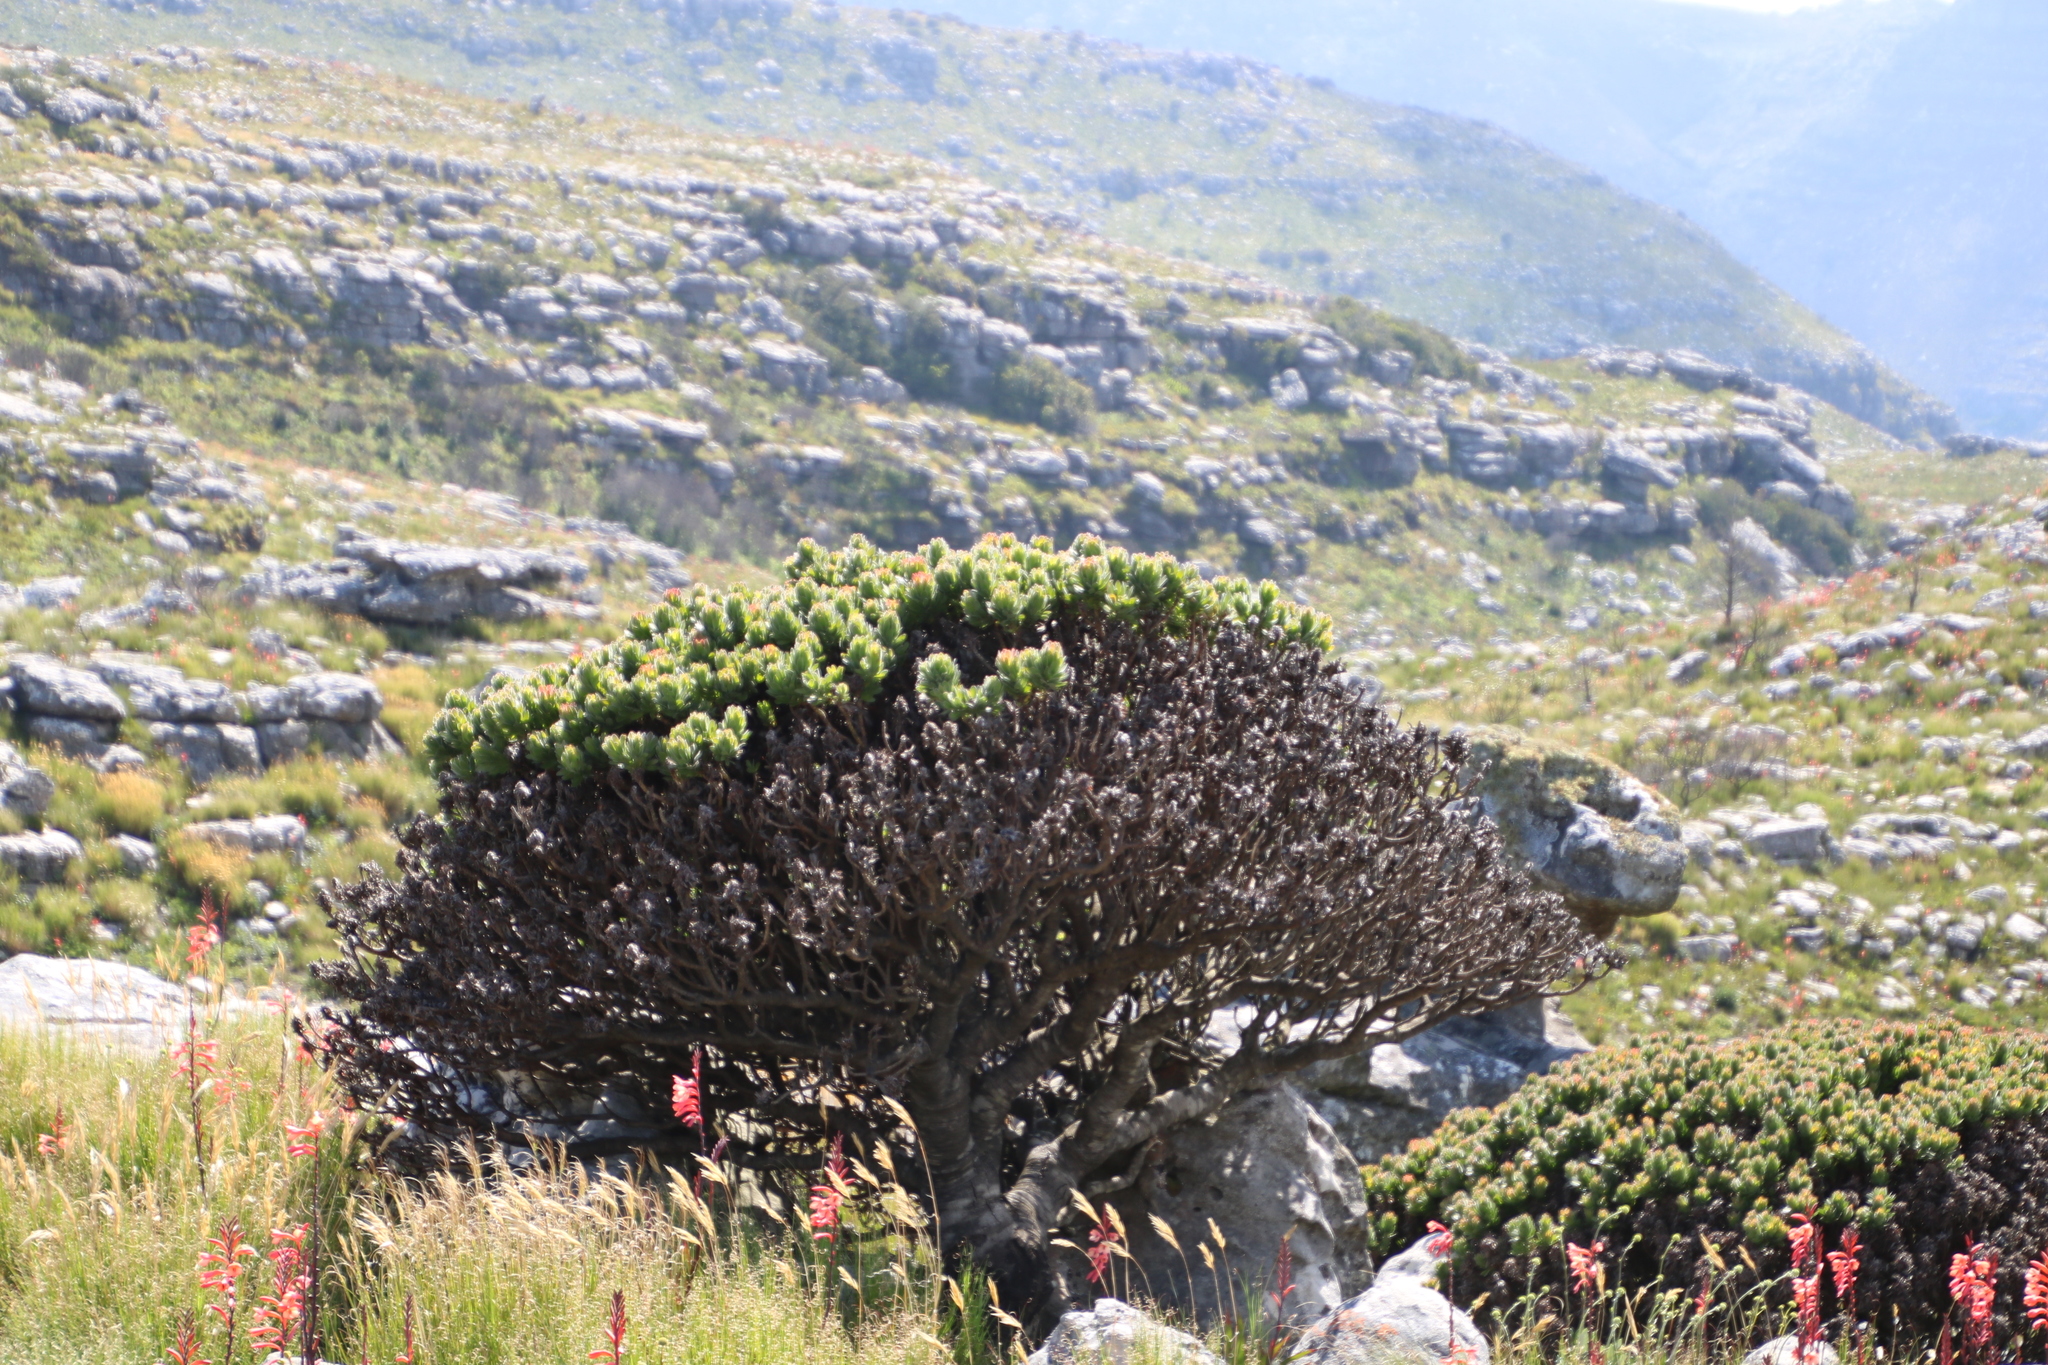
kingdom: Plantae
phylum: Tracheophyta
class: Magnoliopsida
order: Proteales
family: Proteaceae
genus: Mimetes
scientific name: Mimetes fimbriifolius
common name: Fringed bottlebrush
